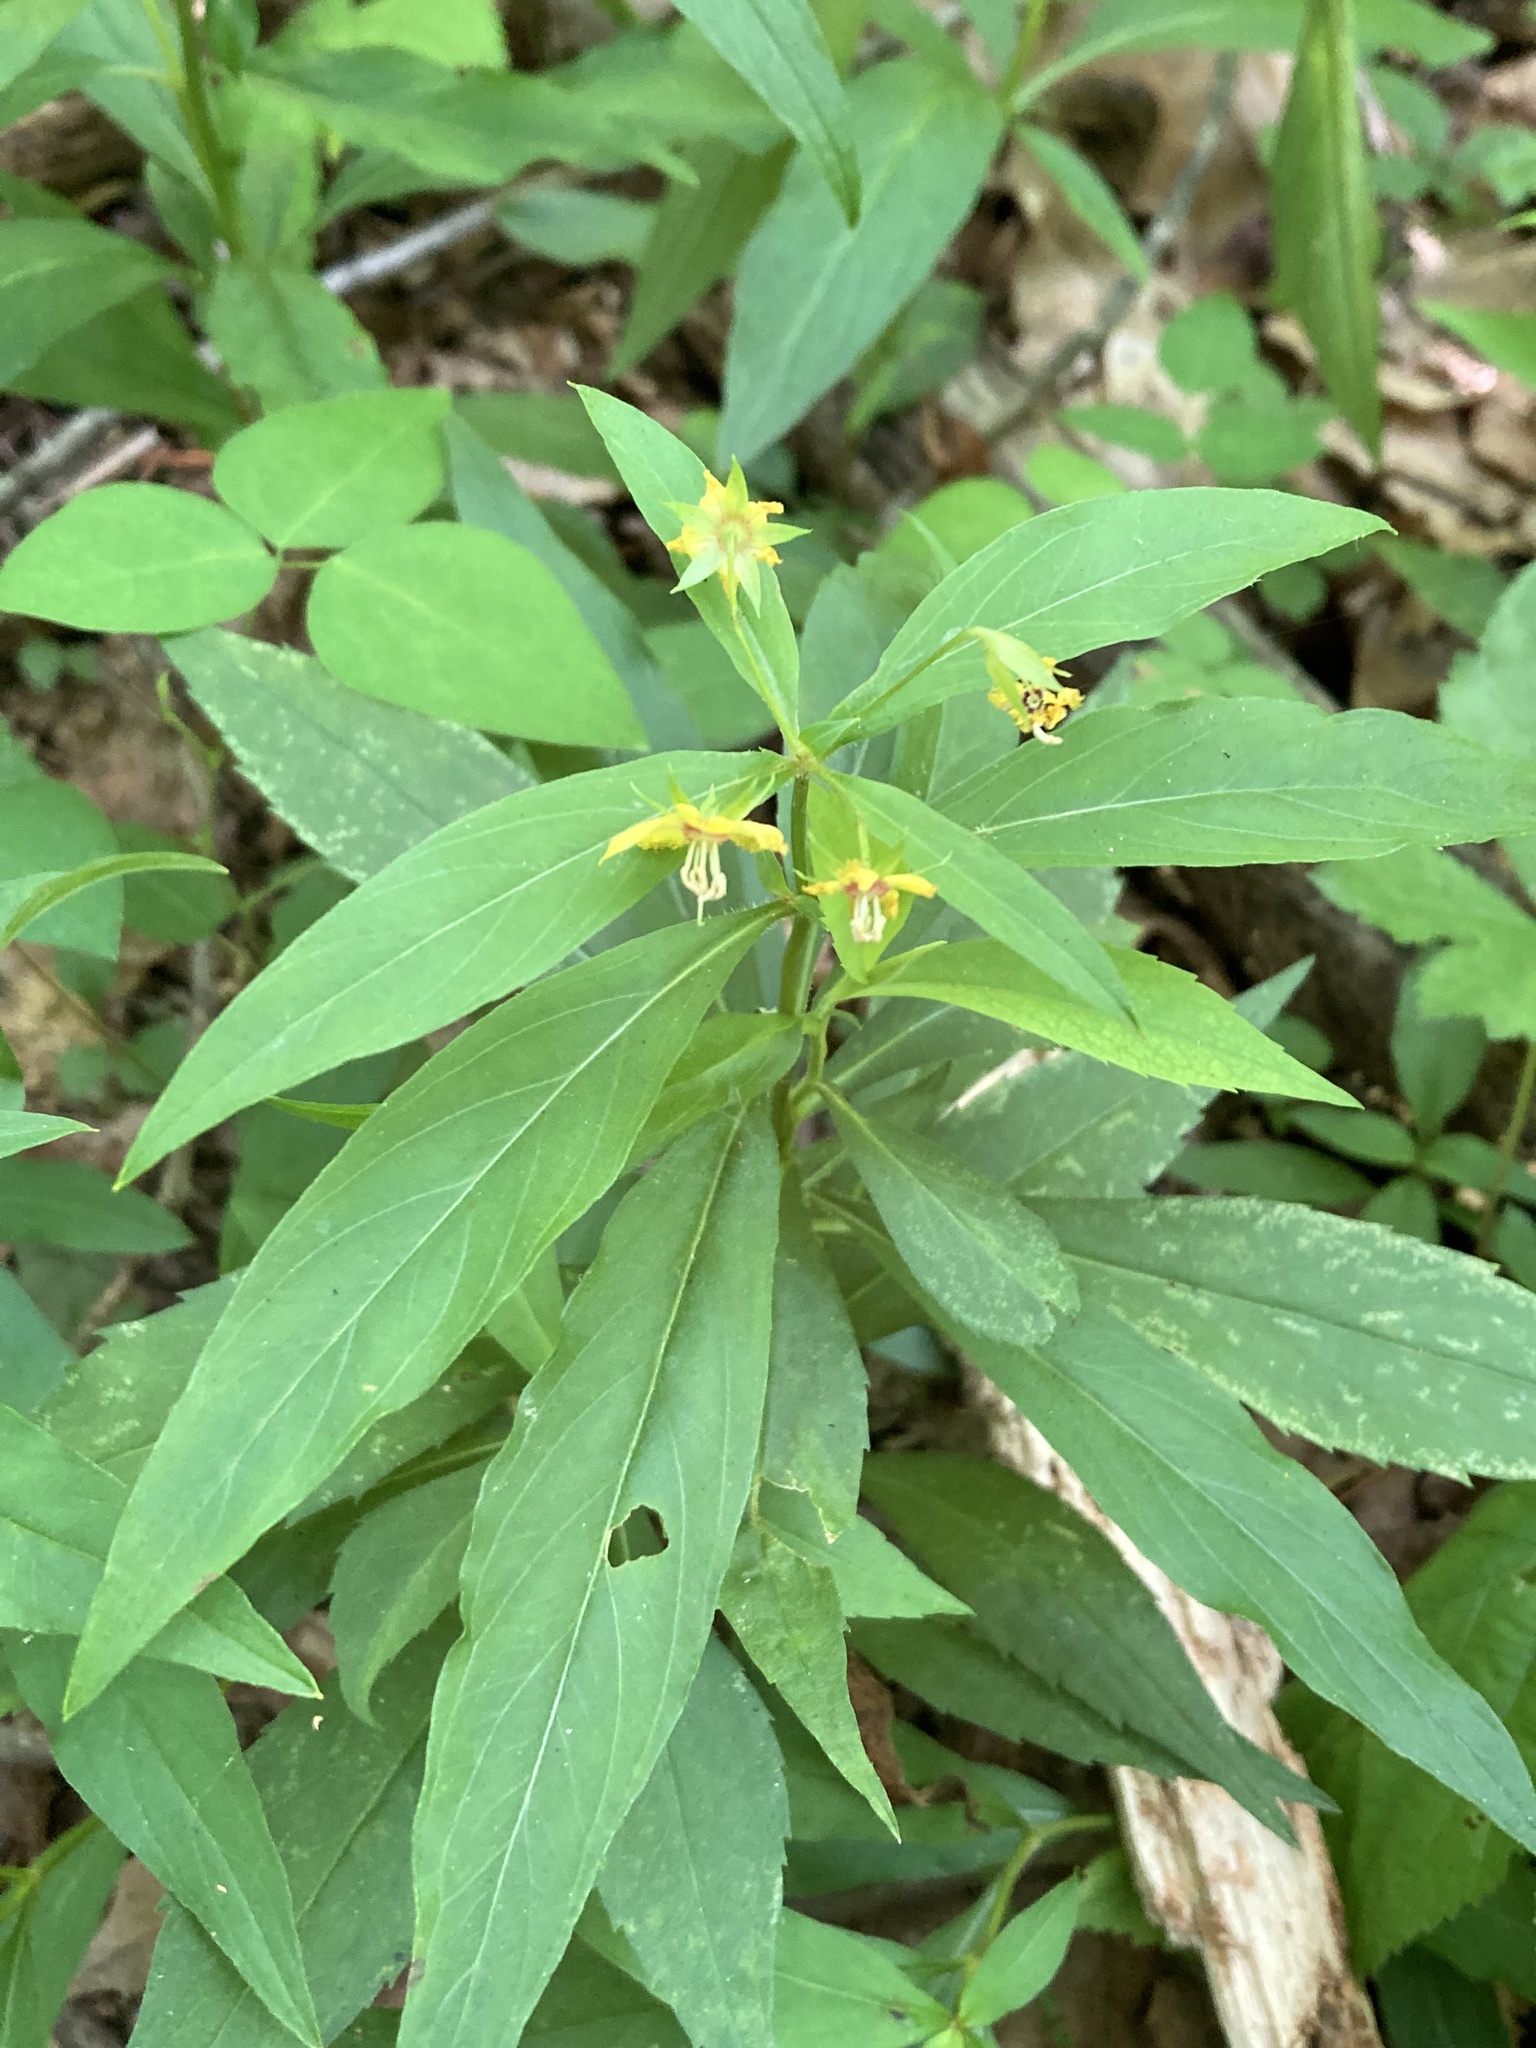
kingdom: Plantae
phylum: Tracheophyta
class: Magnoliopsida
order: Ericales
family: Primulaceae
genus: Lysimachia
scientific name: Lysimachia lanceolata
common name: Lance-leaved loosestrife
